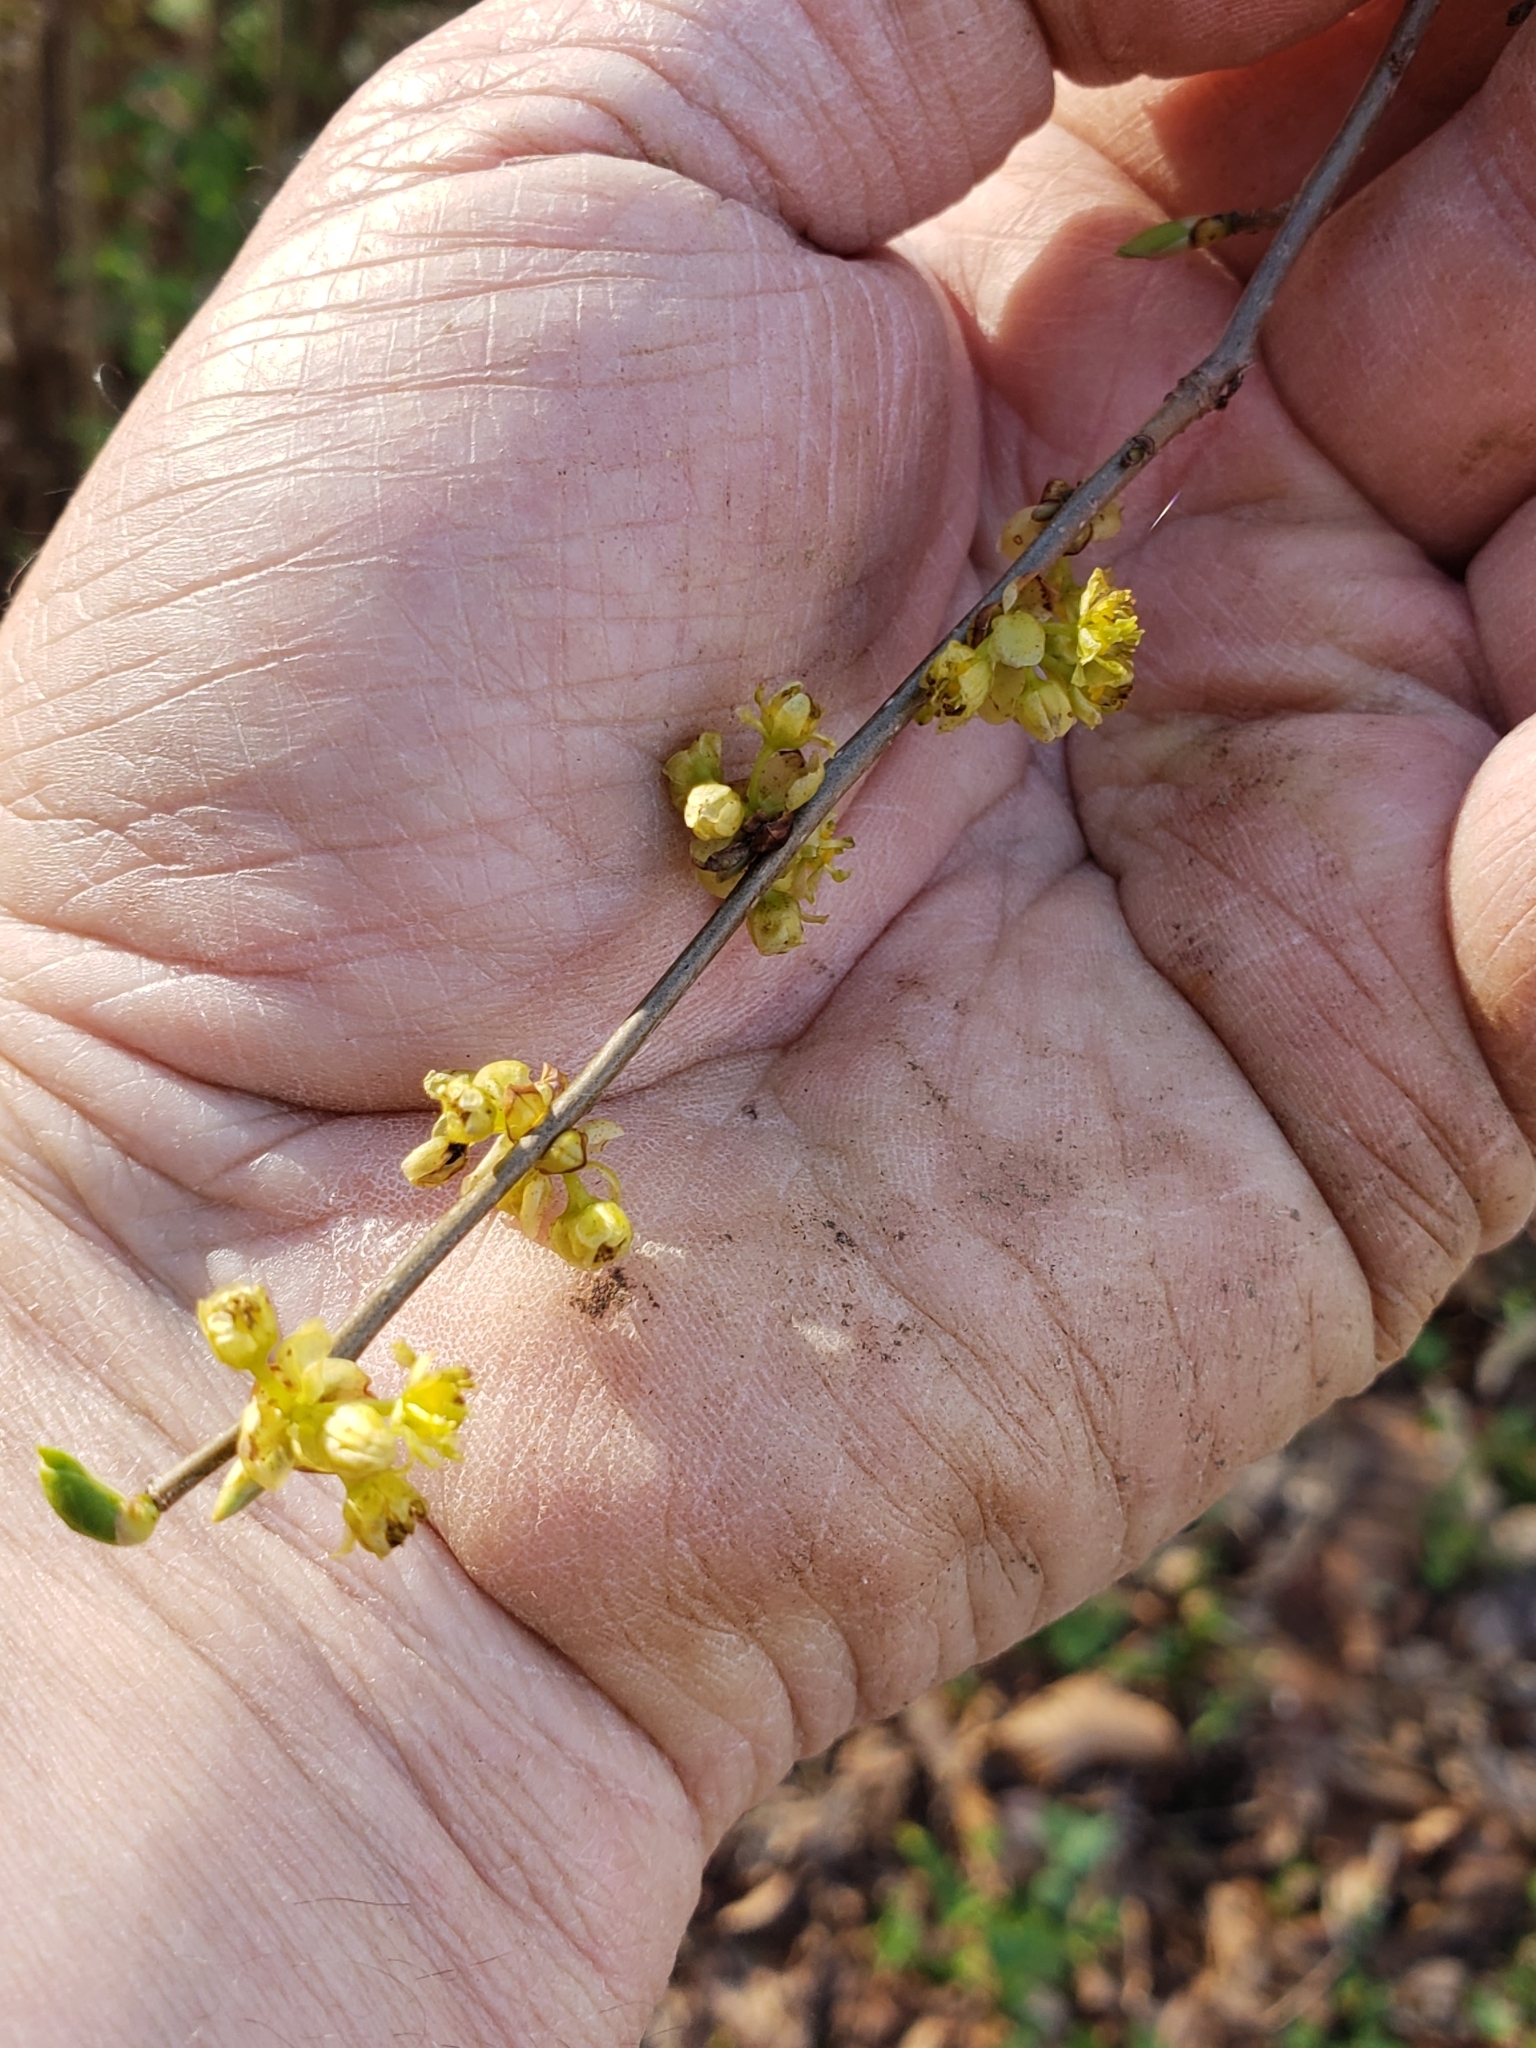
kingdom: Plantae
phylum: Tracheophyta
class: Magnoliopsida
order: Laurales
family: Lauraceae
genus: Lindera
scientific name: Lindera benzoin
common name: Spicebush
